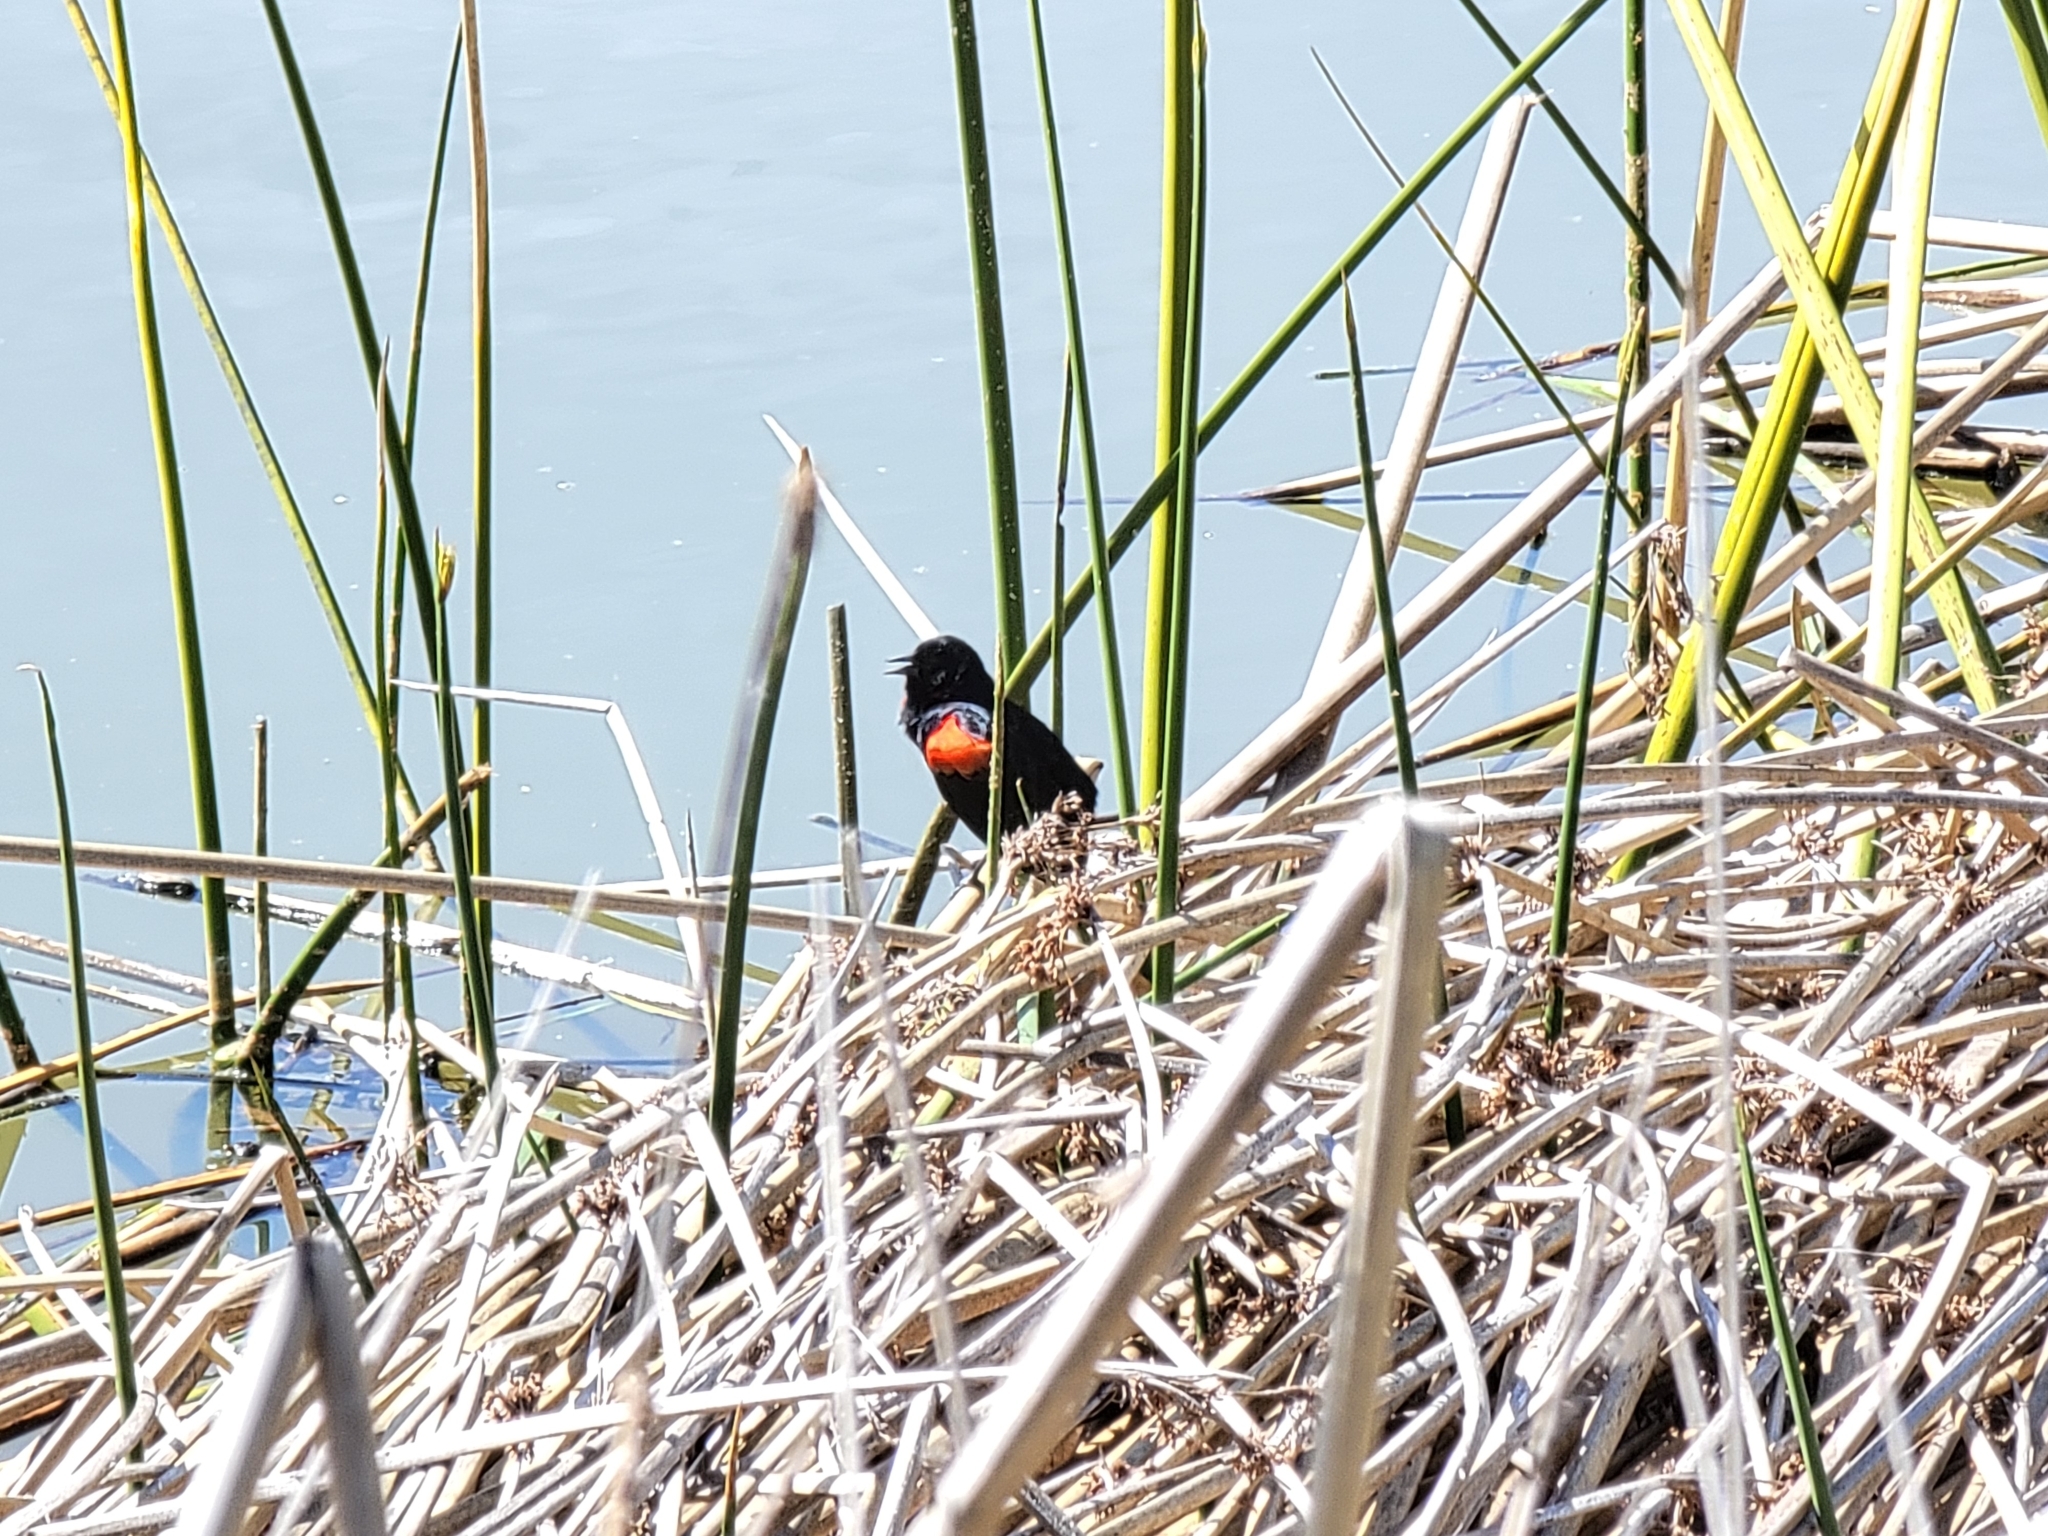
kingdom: Animalia
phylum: Chordata
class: Aves
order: Passeriformes
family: Icteridae
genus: Agelaius
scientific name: Agelaius phoeniceus
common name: Red-winged blackbird
